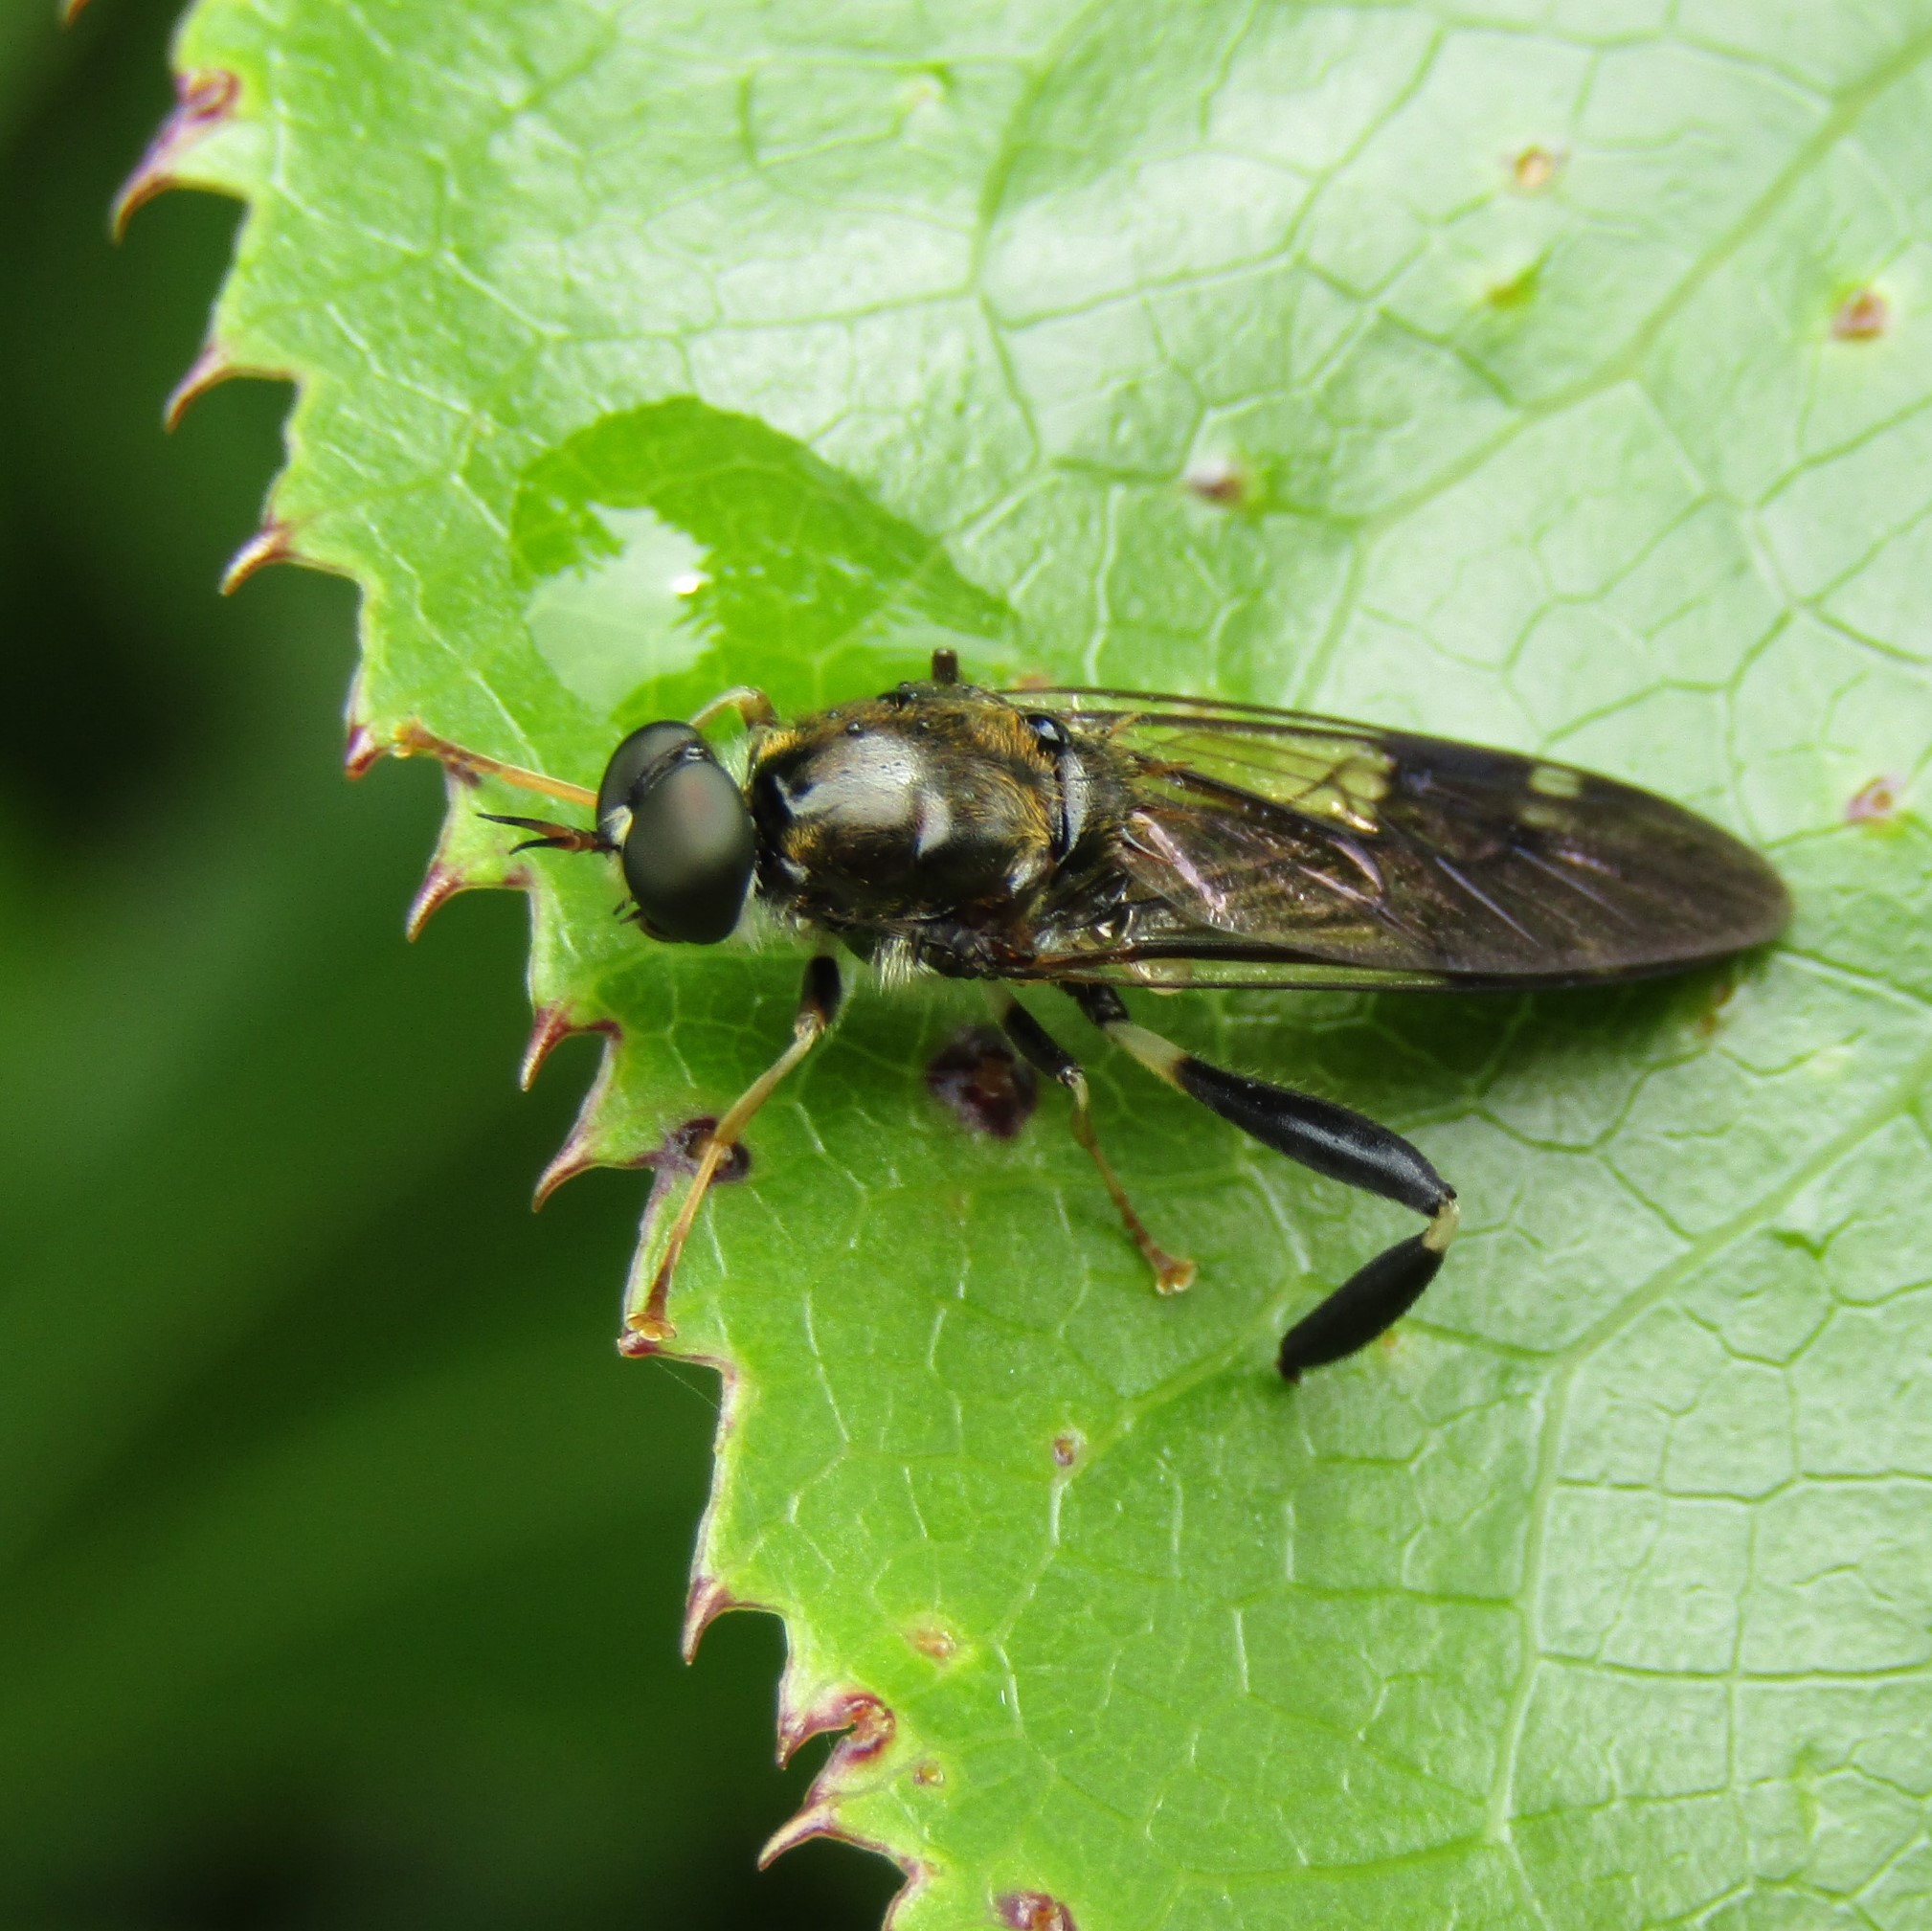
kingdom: Animalia
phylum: Arthropoda
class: Insecta
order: Diptera
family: Stratiomyidae
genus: Exaireta
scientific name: Exaireta spinigera
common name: Blue soldier fly
